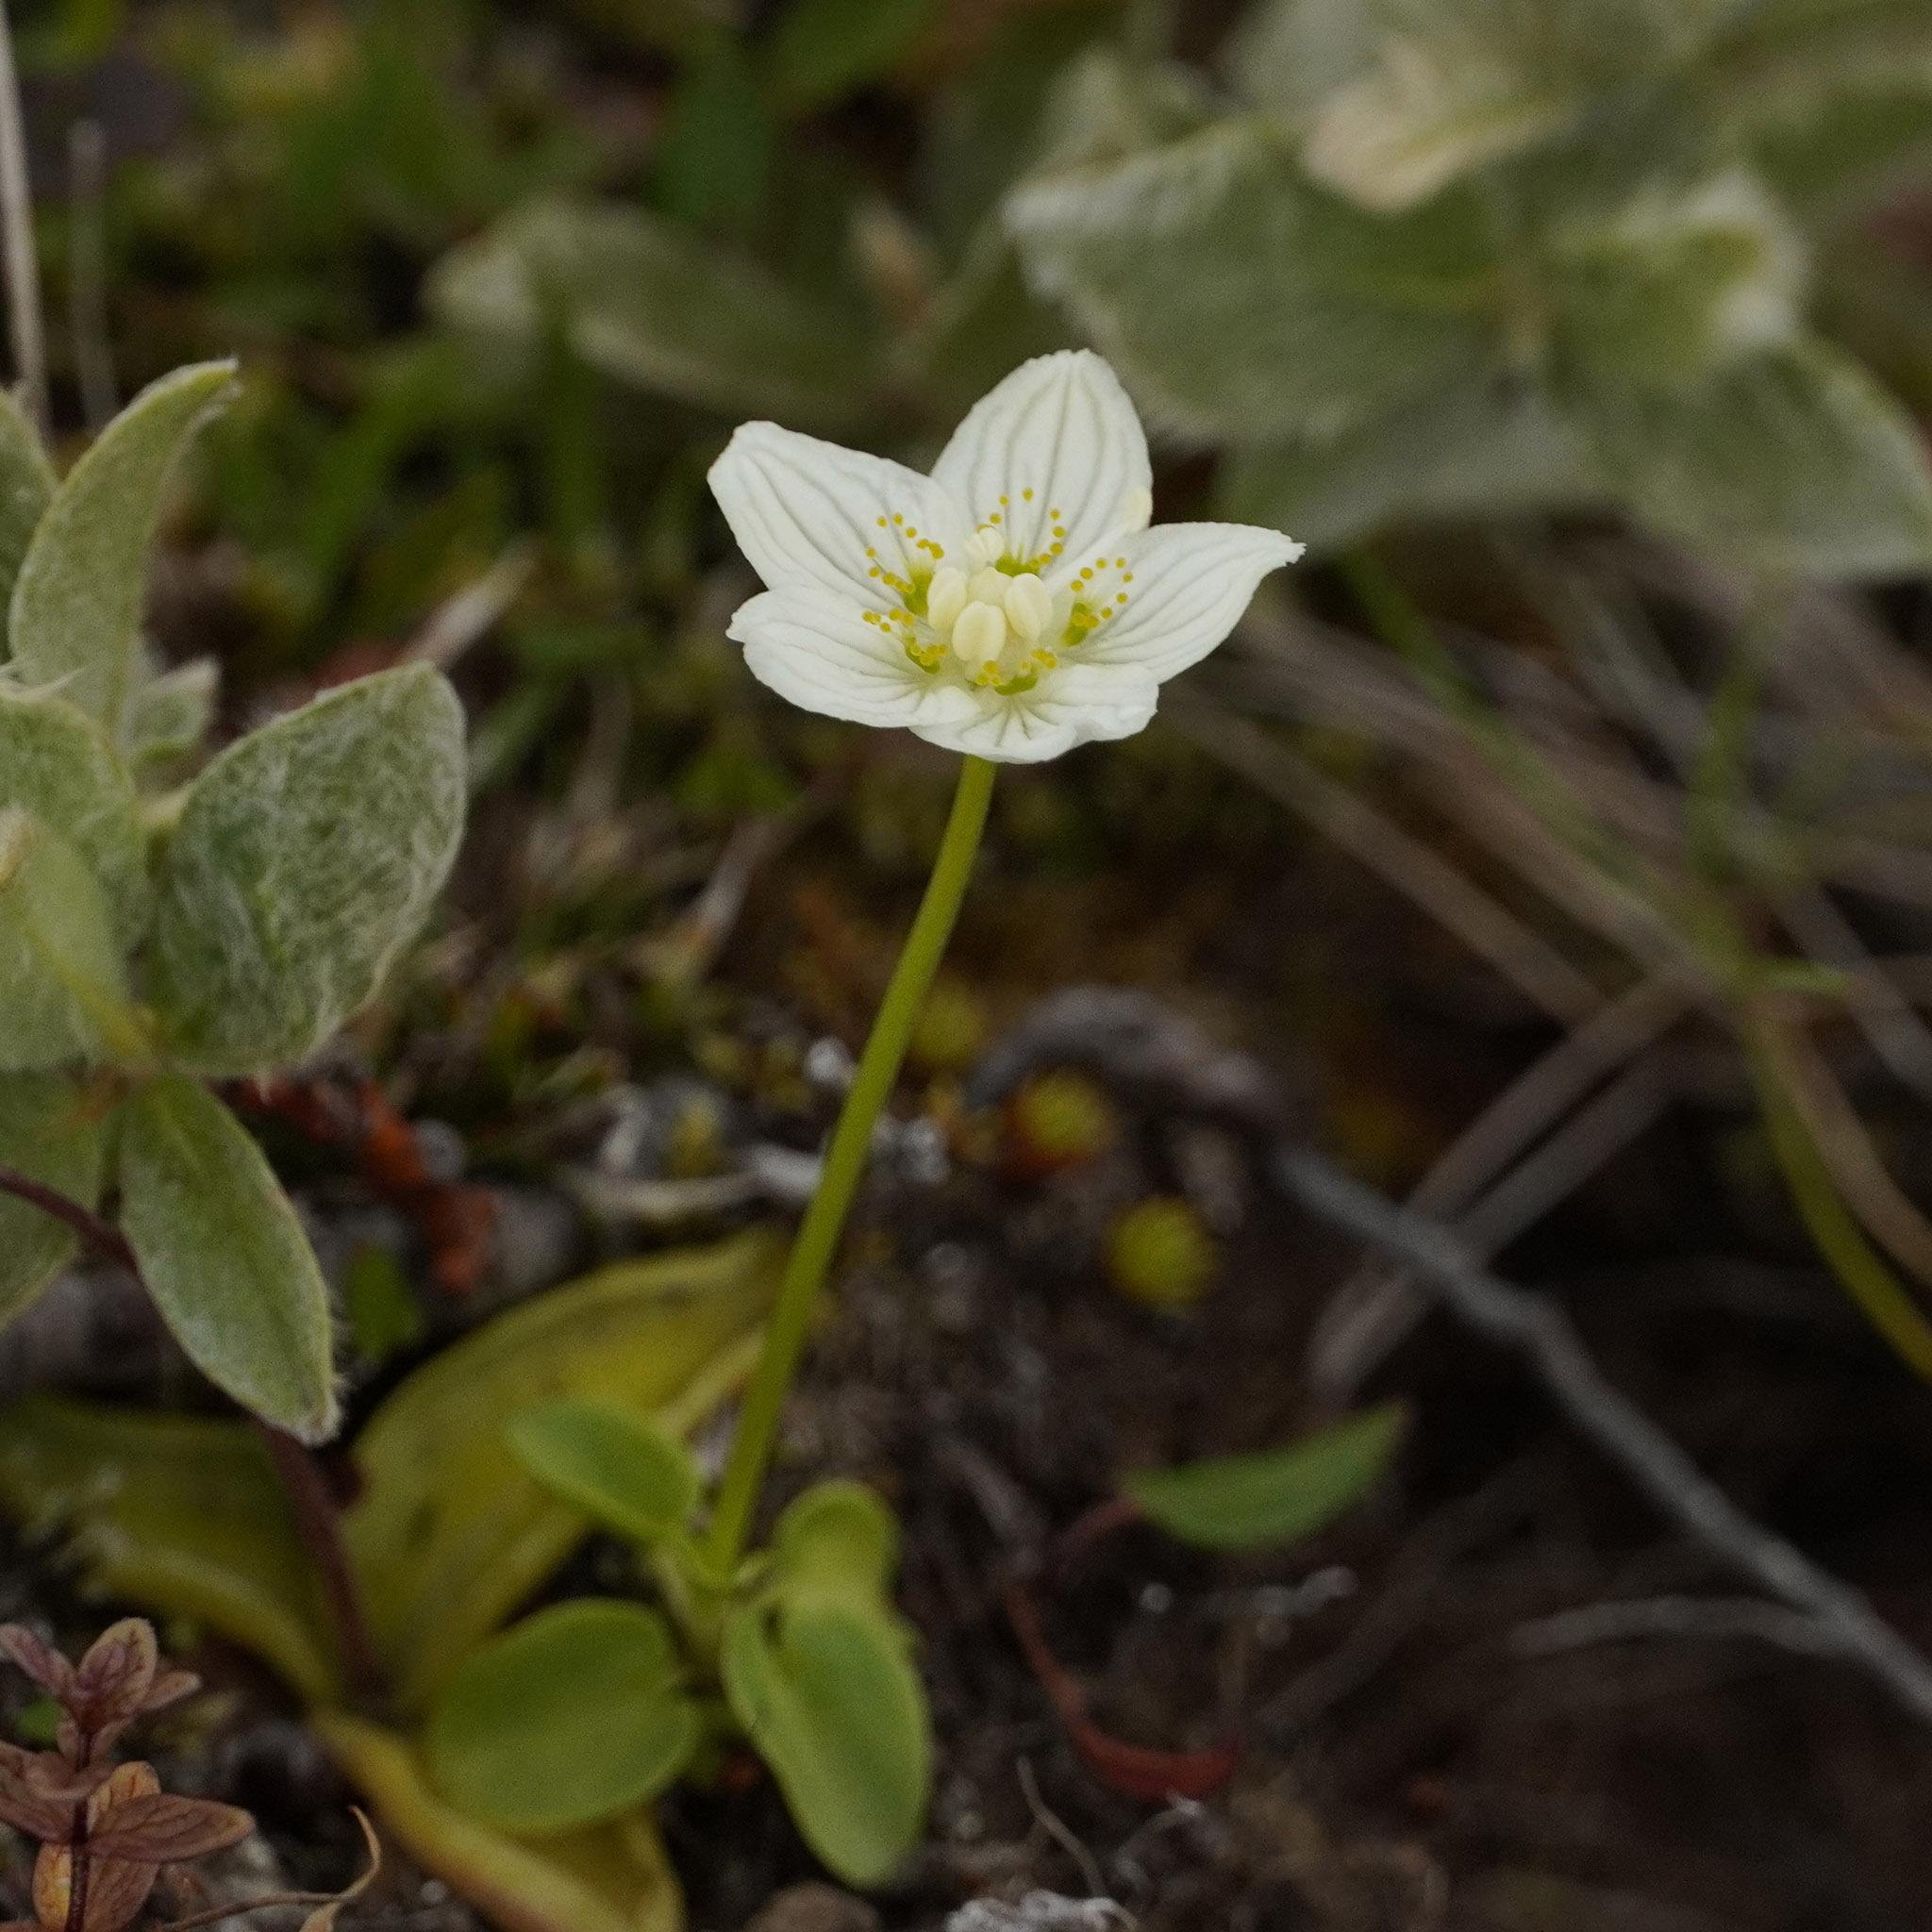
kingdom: Plantae
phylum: Tracheophyta
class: Magnoliopsida
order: Celastrales
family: Parnassiaceae
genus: Parnassia
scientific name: Parnassia palustris
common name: Grass-of-parnassus
